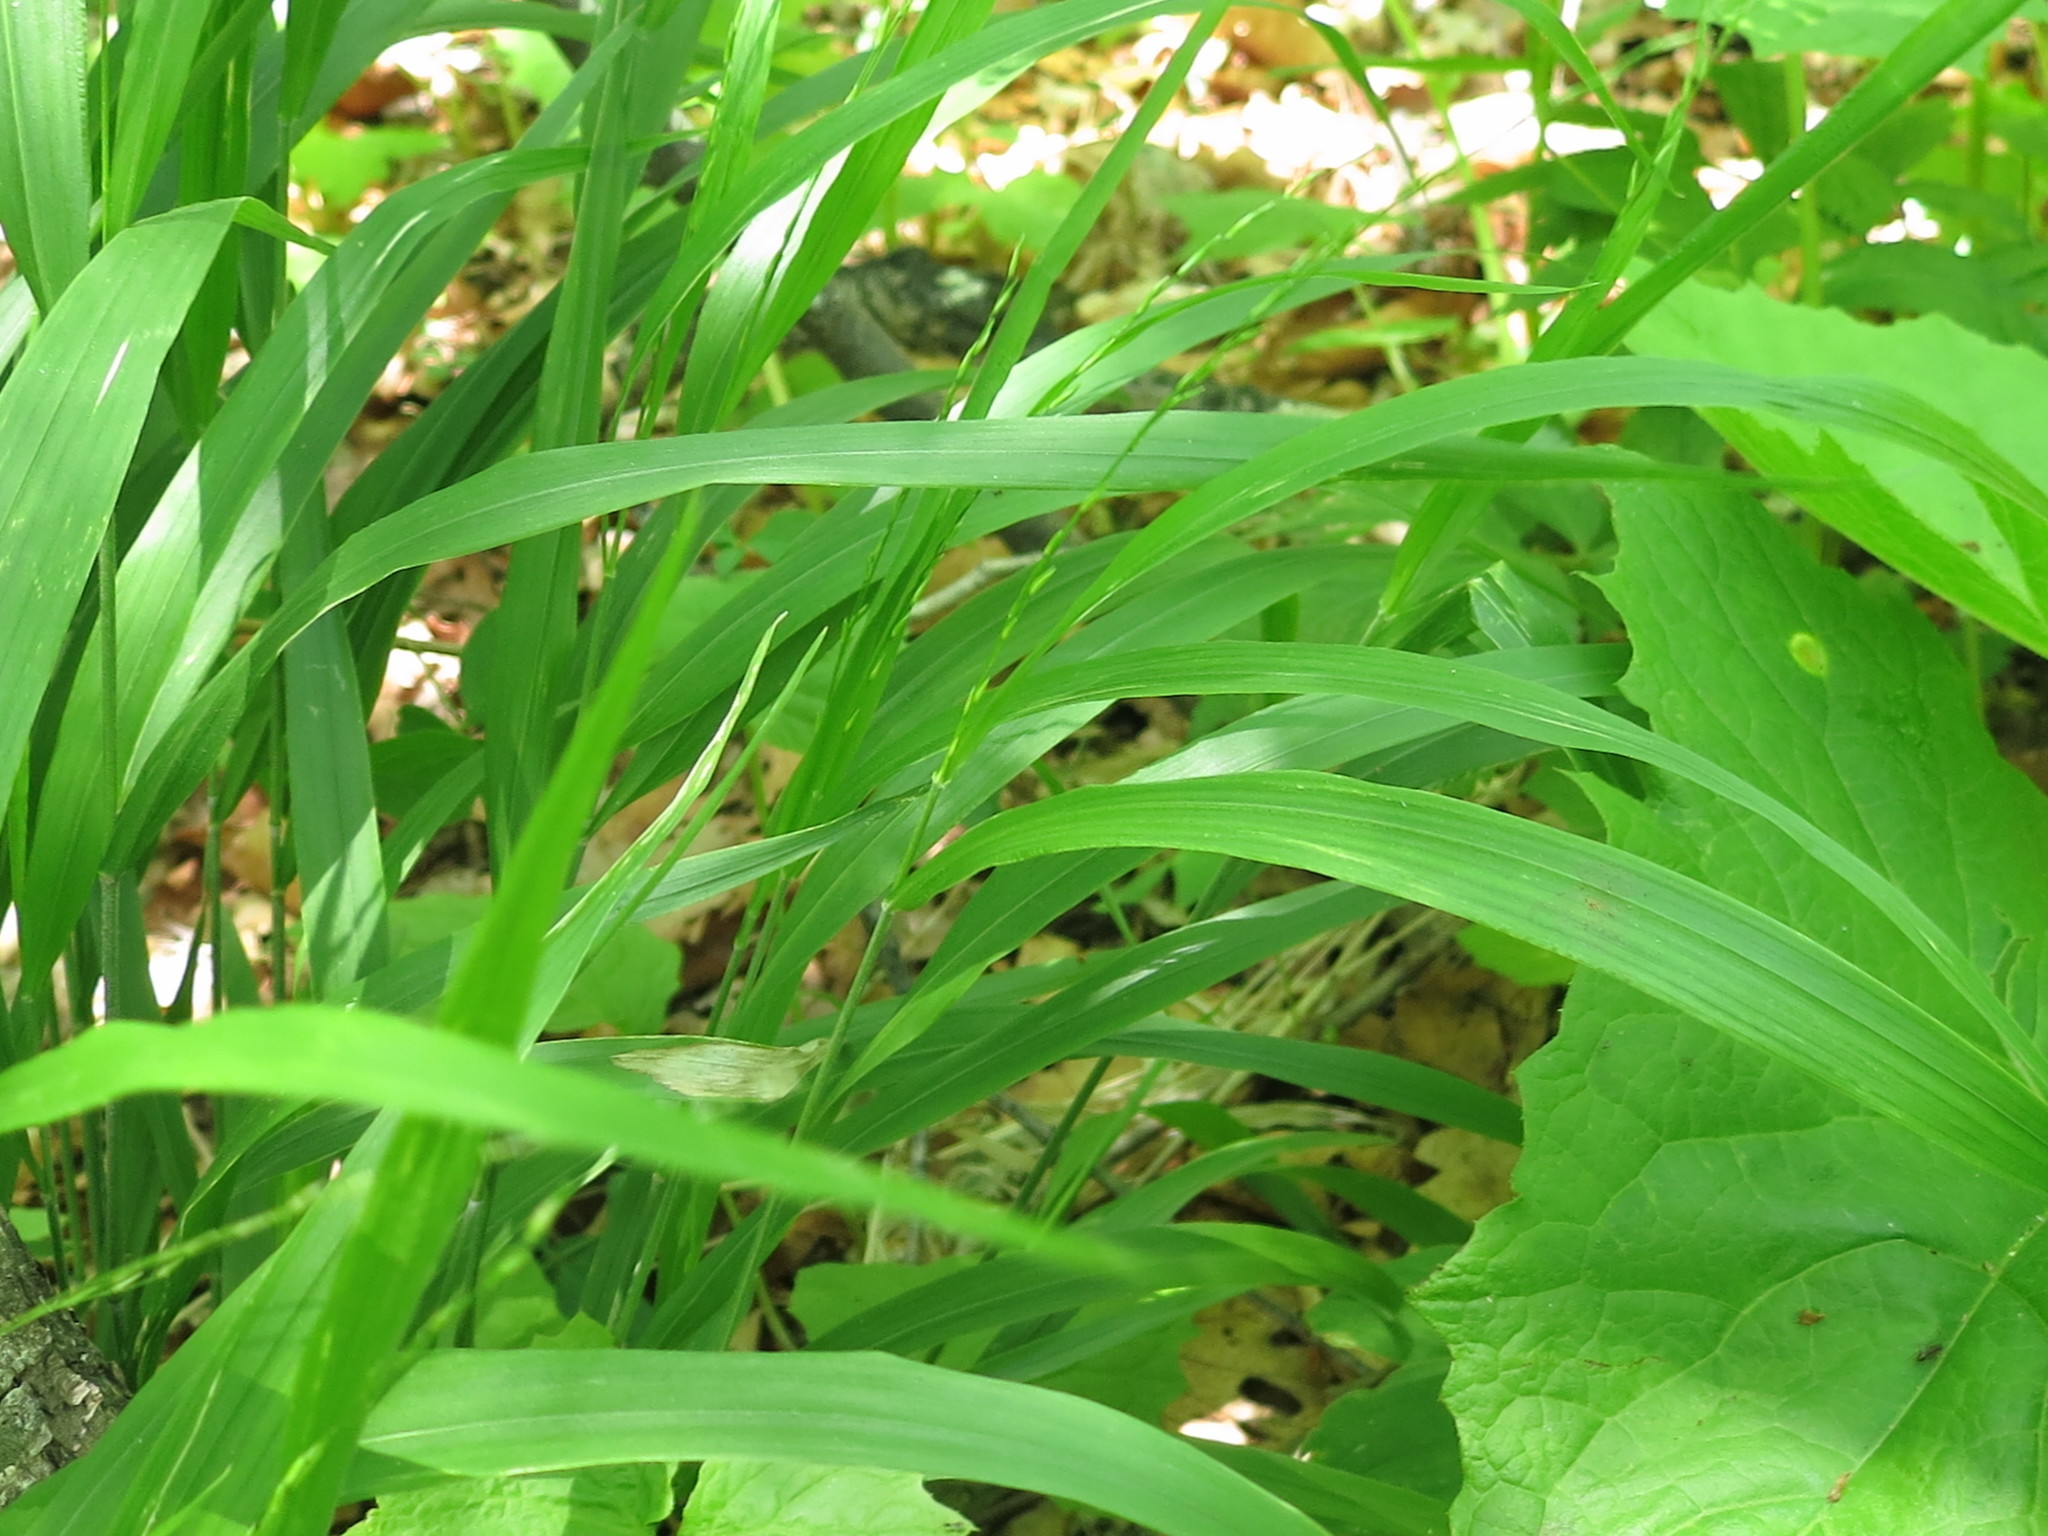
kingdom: Plantae
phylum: Tracheophyta
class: Liliopsida
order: Poales
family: Poaceae
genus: Diarrhena
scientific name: Diarrhena mandshurica
